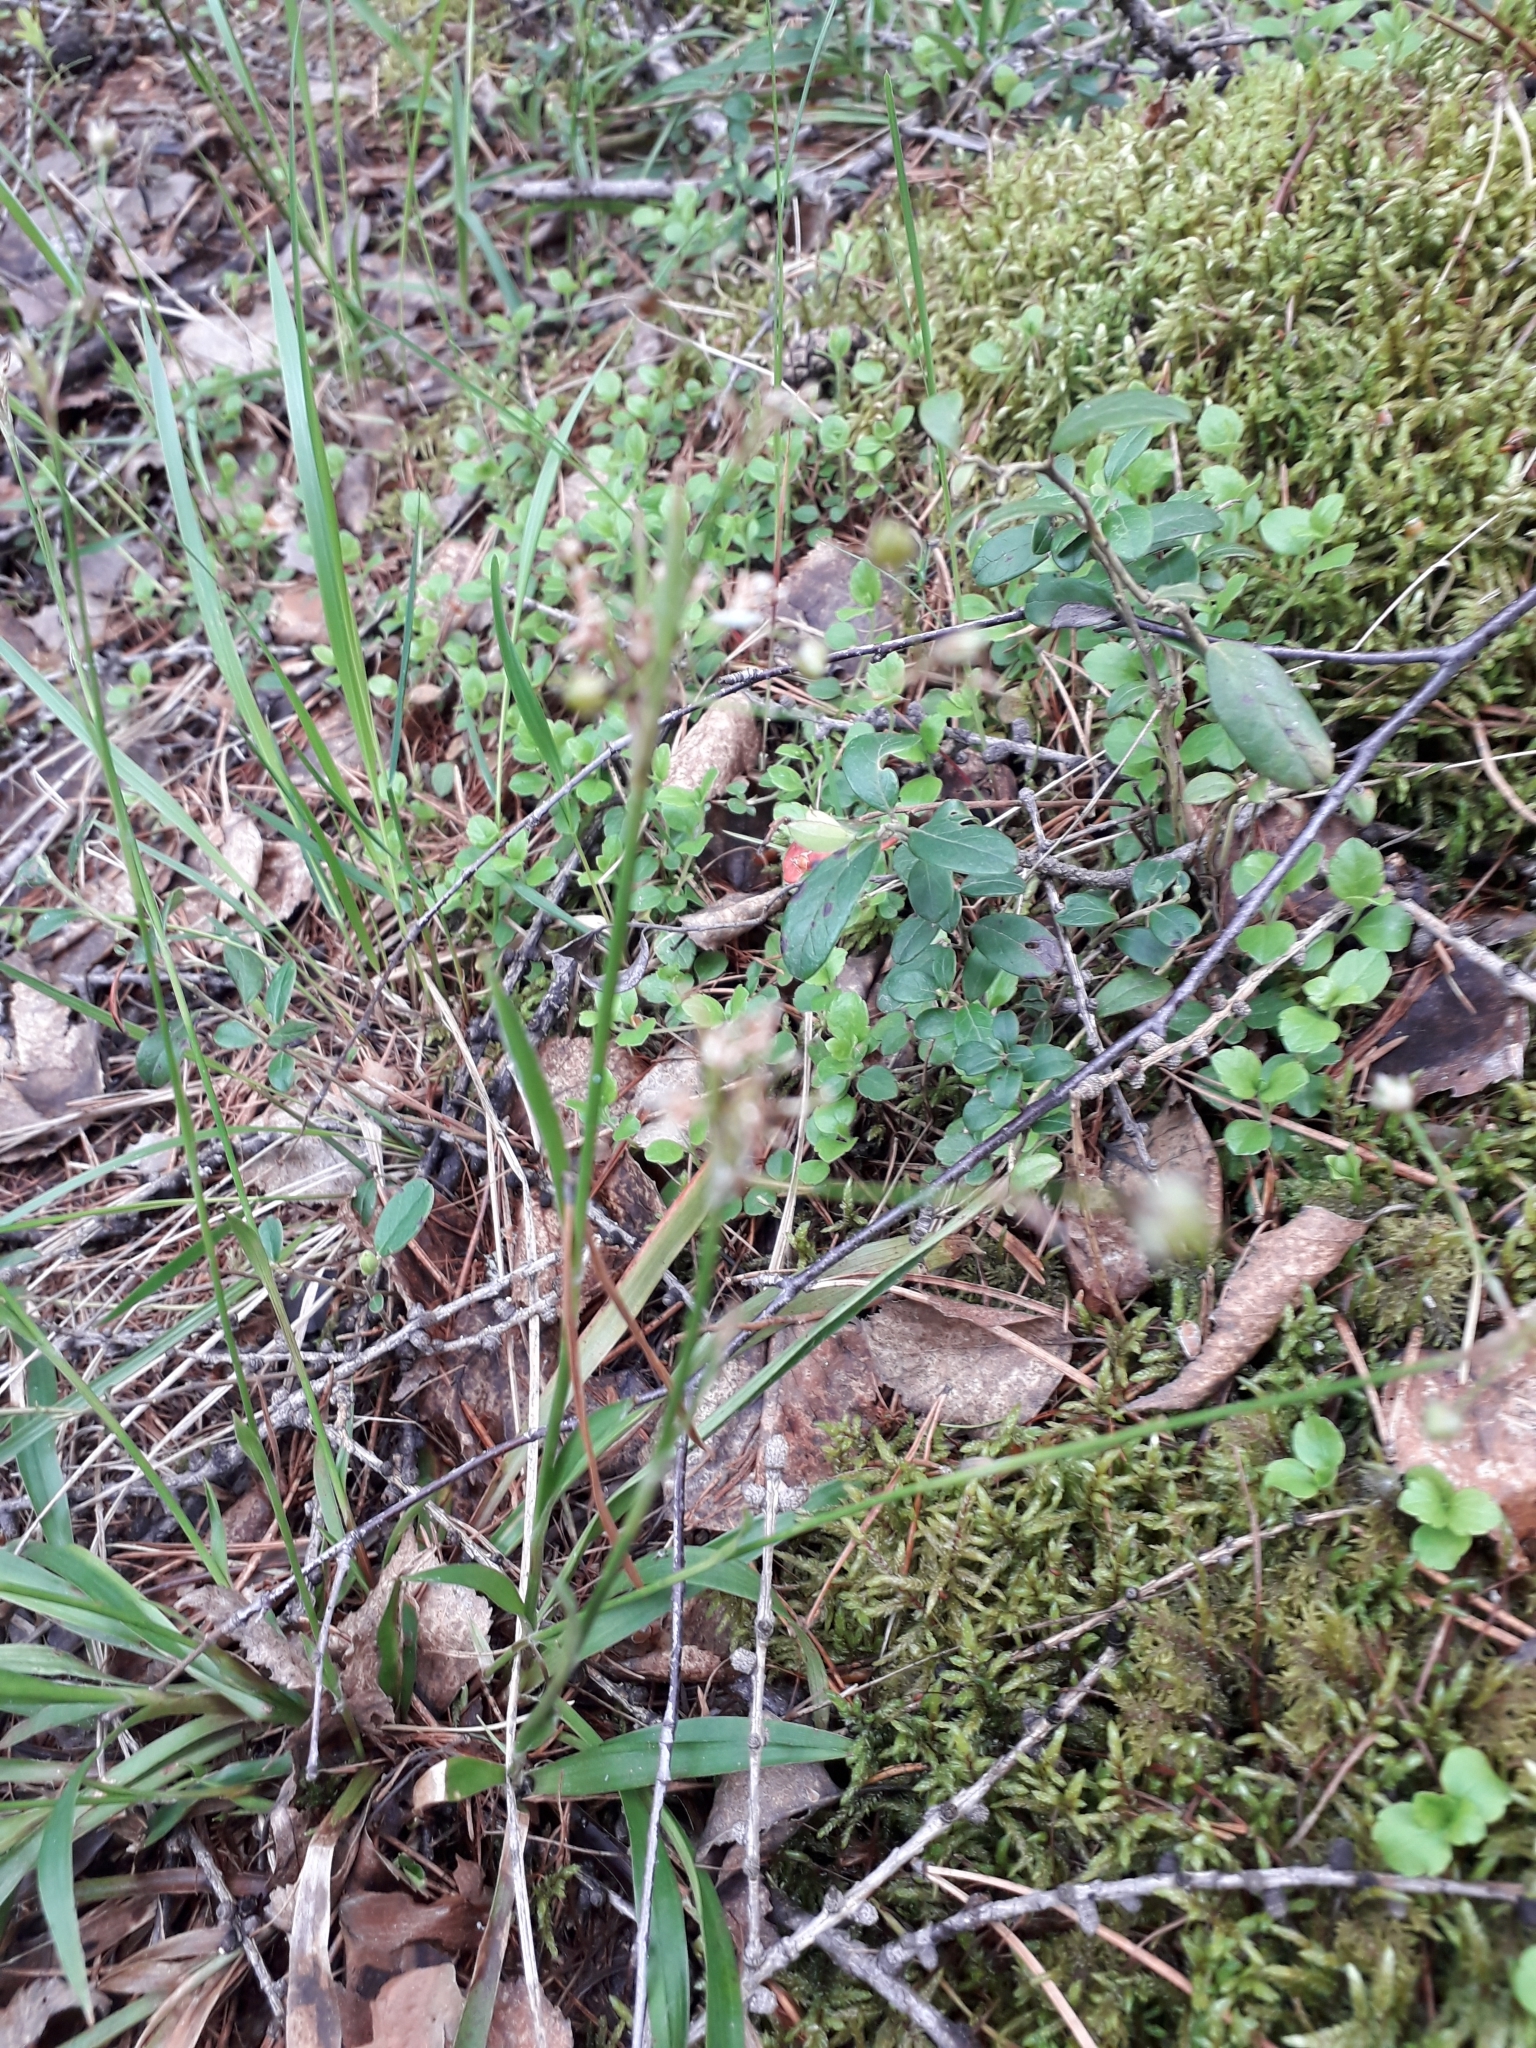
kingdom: Plantae
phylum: Tracheophyta
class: Liliopsida
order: Poales
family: Juncaceae
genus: Luzula
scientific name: Luzula pilosa
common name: Hairy wood-rush
